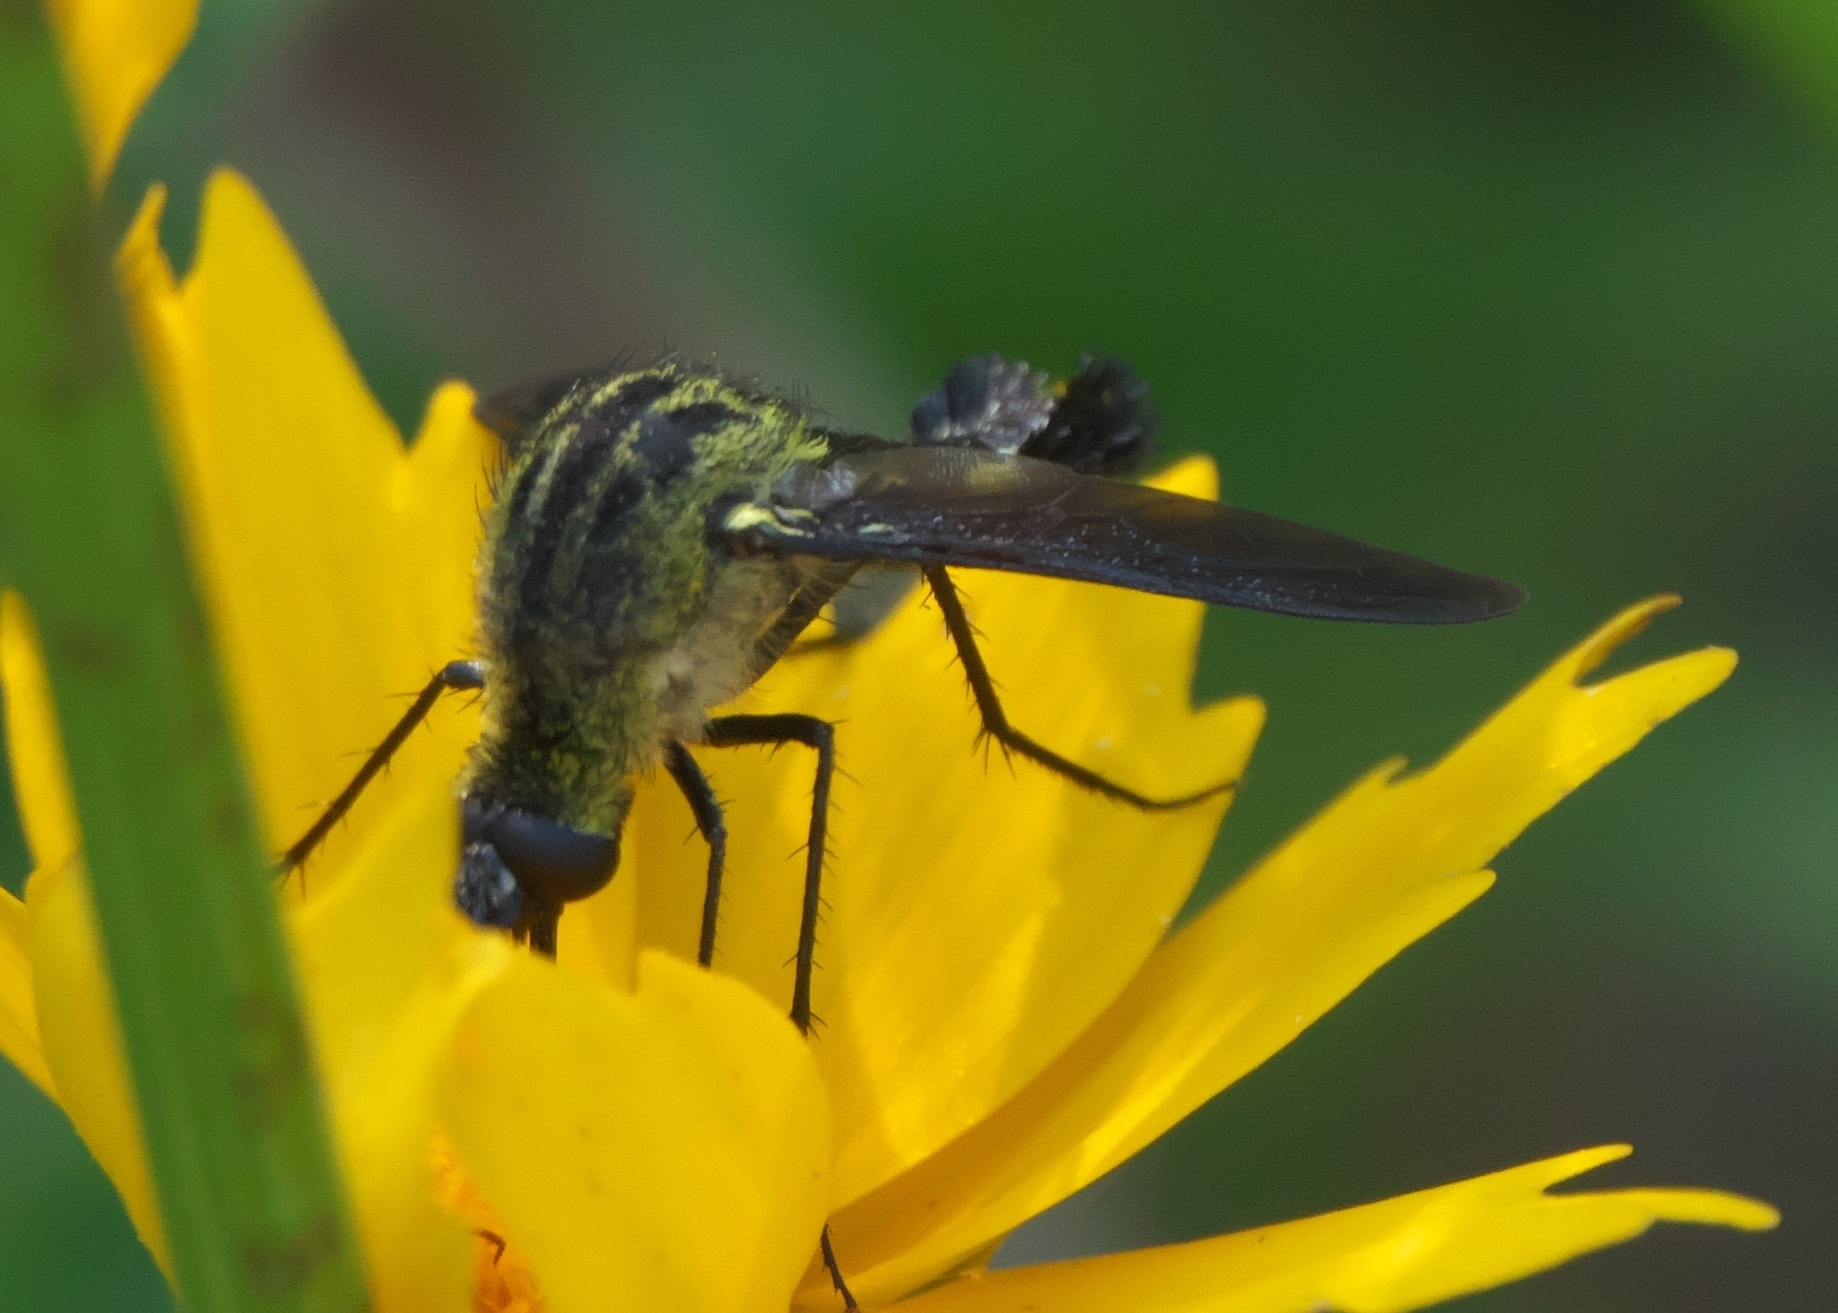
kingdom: Animalia
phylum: Arthropoda
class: Insecta
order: Diptera
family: Bombyliidae
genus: Lepidophora
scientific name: Lepidophora lepidocera
